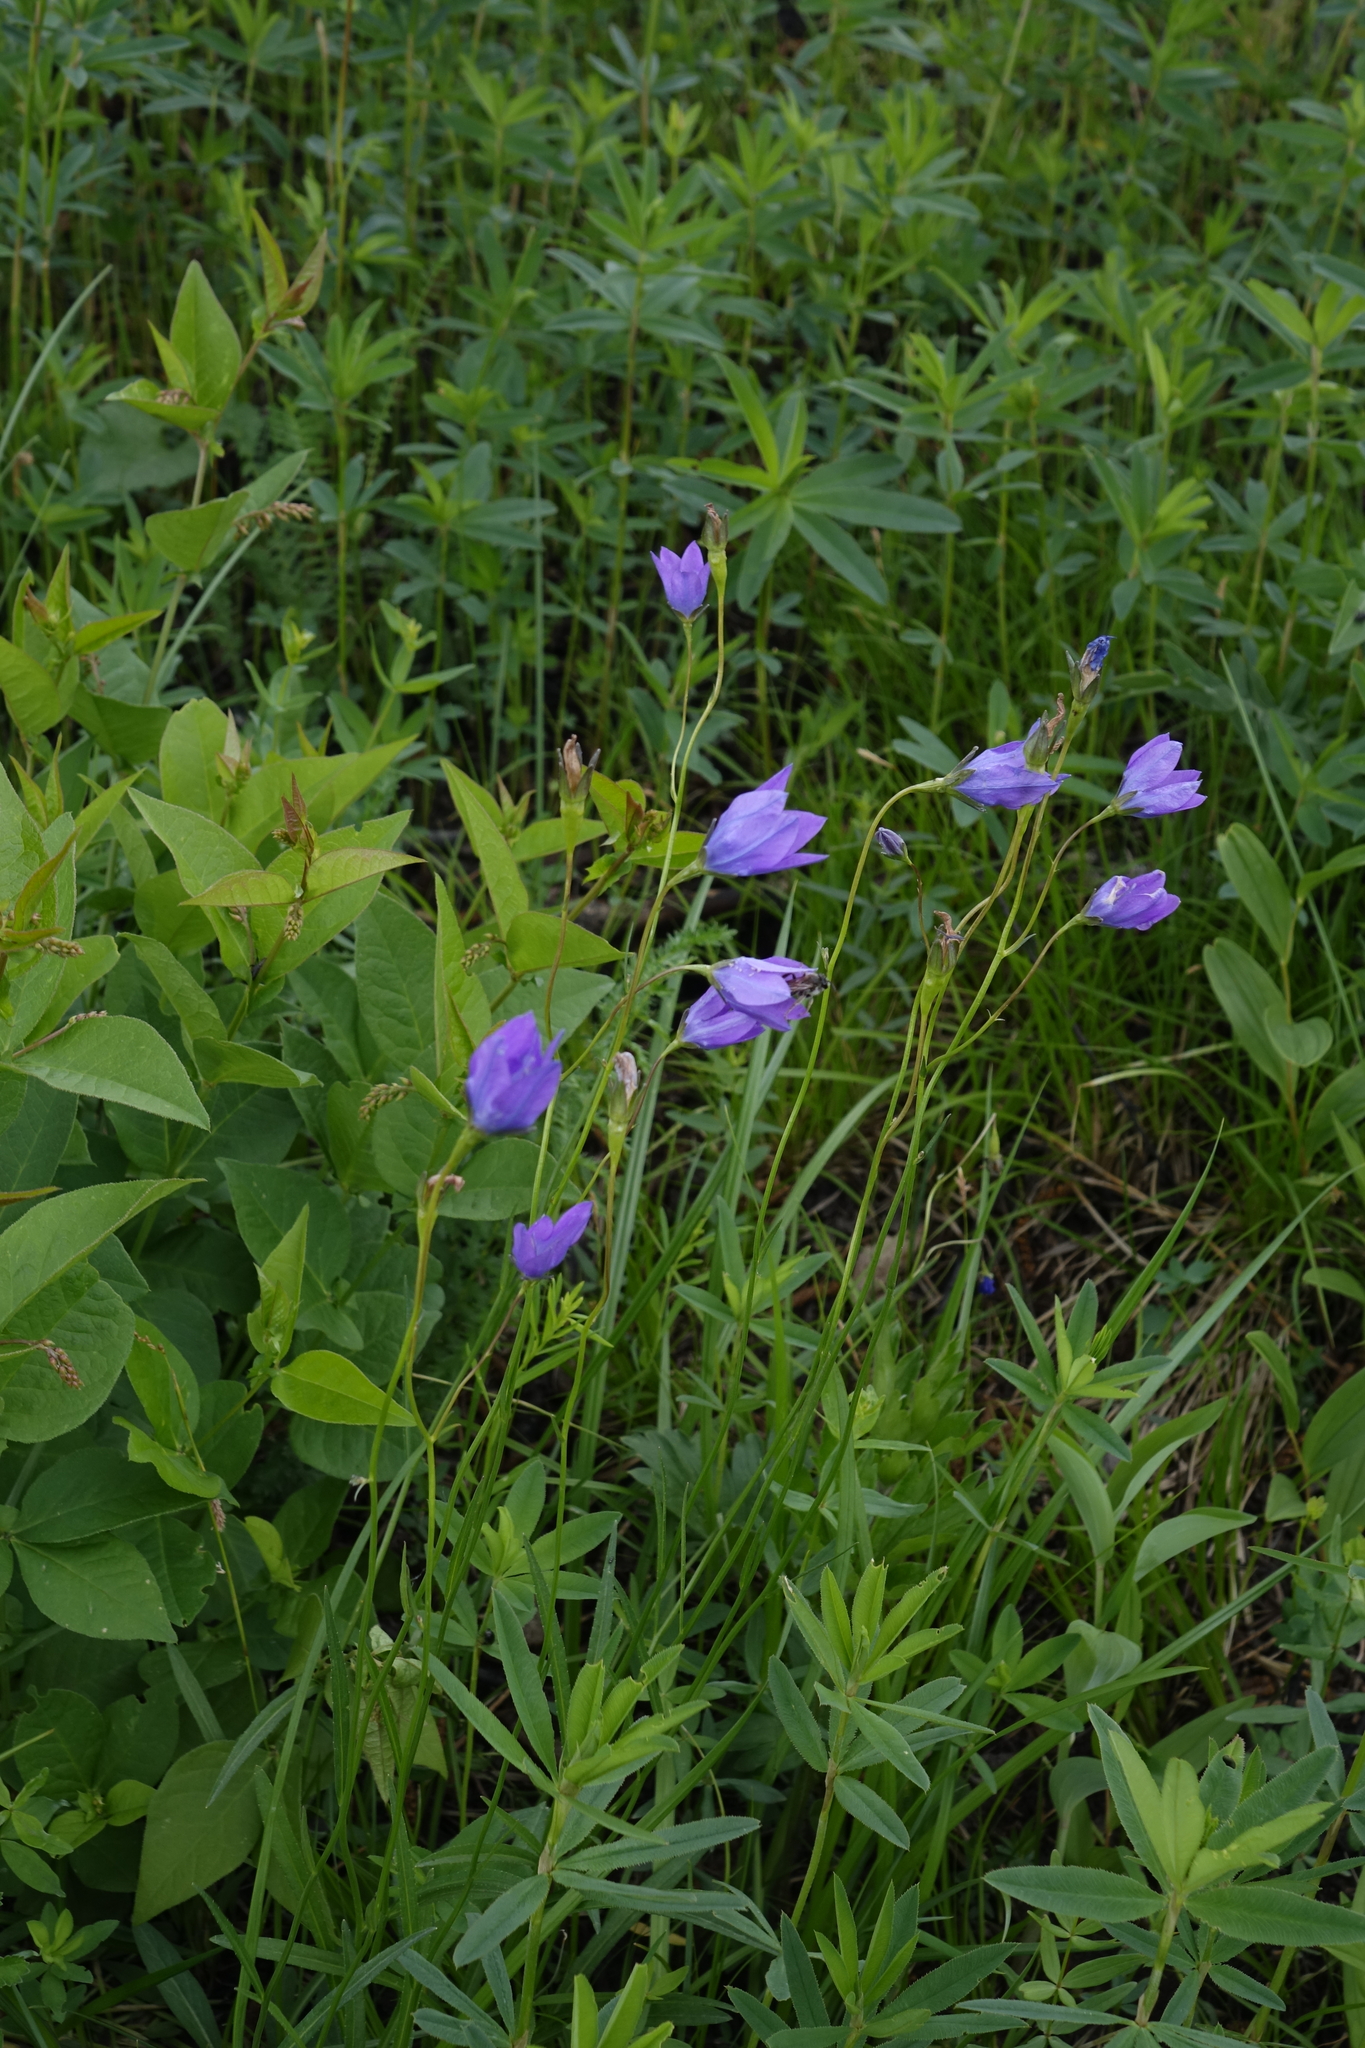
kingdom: Plantae
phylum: Tracheophyta
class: Magnoliopsida
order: Asterales
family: Campanulaceae
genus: Campanula
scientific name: Campanula stevenii
